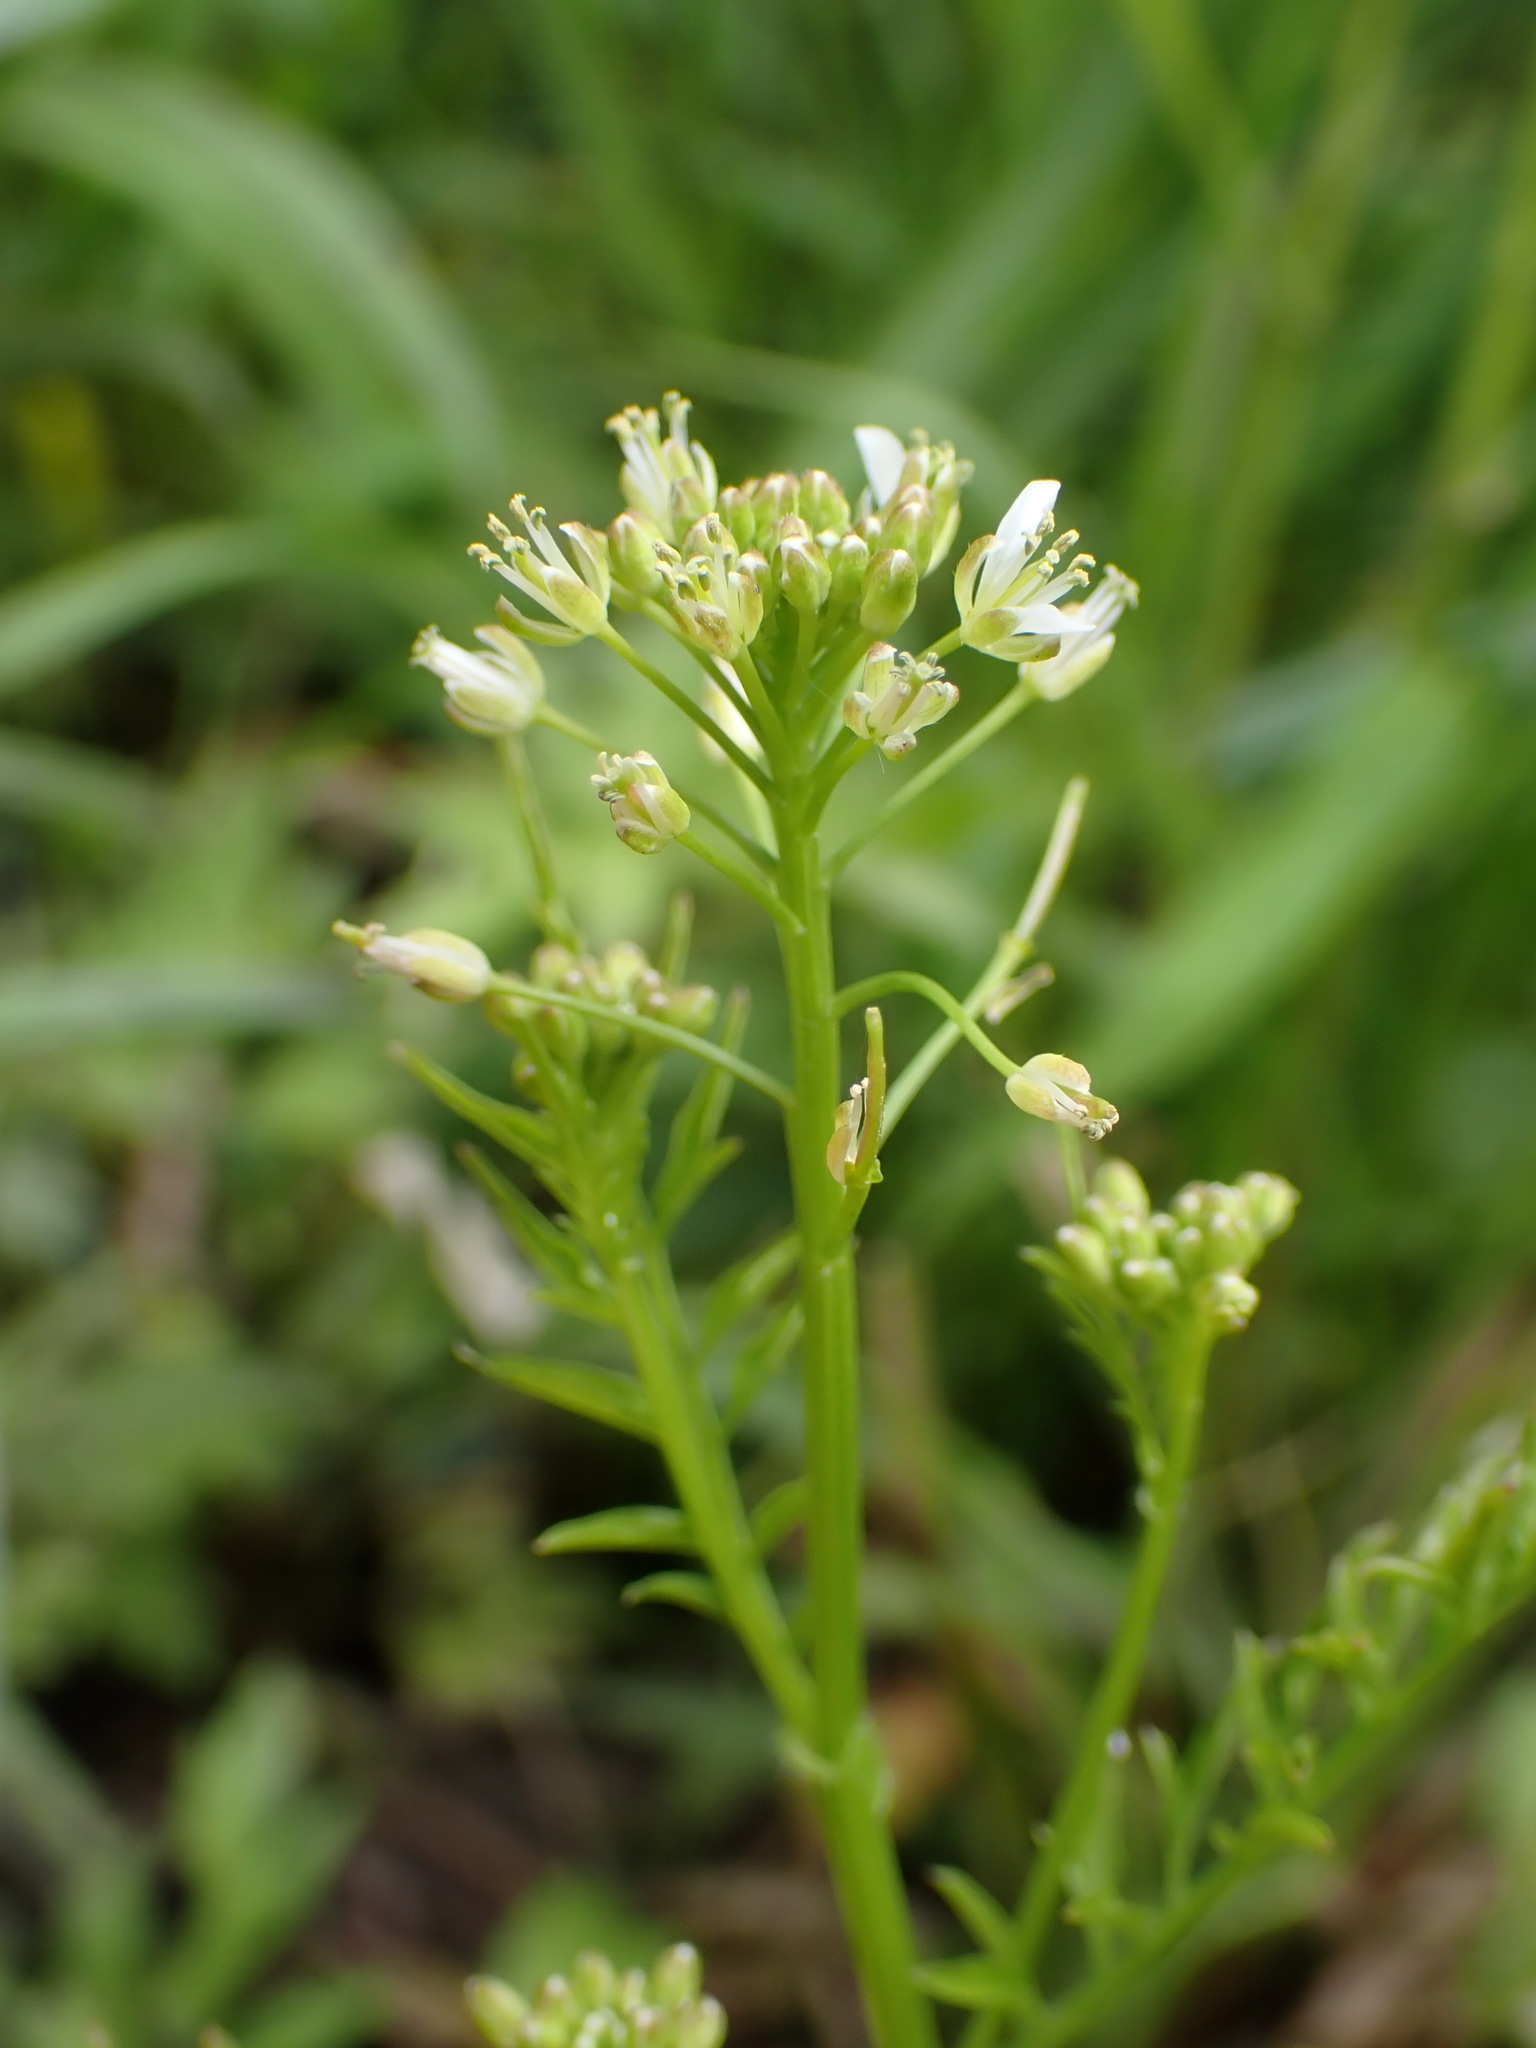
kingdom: Plantae
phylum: Tracheophyta
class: Magnoliopsida
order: Brassicales
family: Brassicaceae
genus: Cardamine
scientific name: Cardamine impatiens
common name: Narrow-leaved bitter-cress
